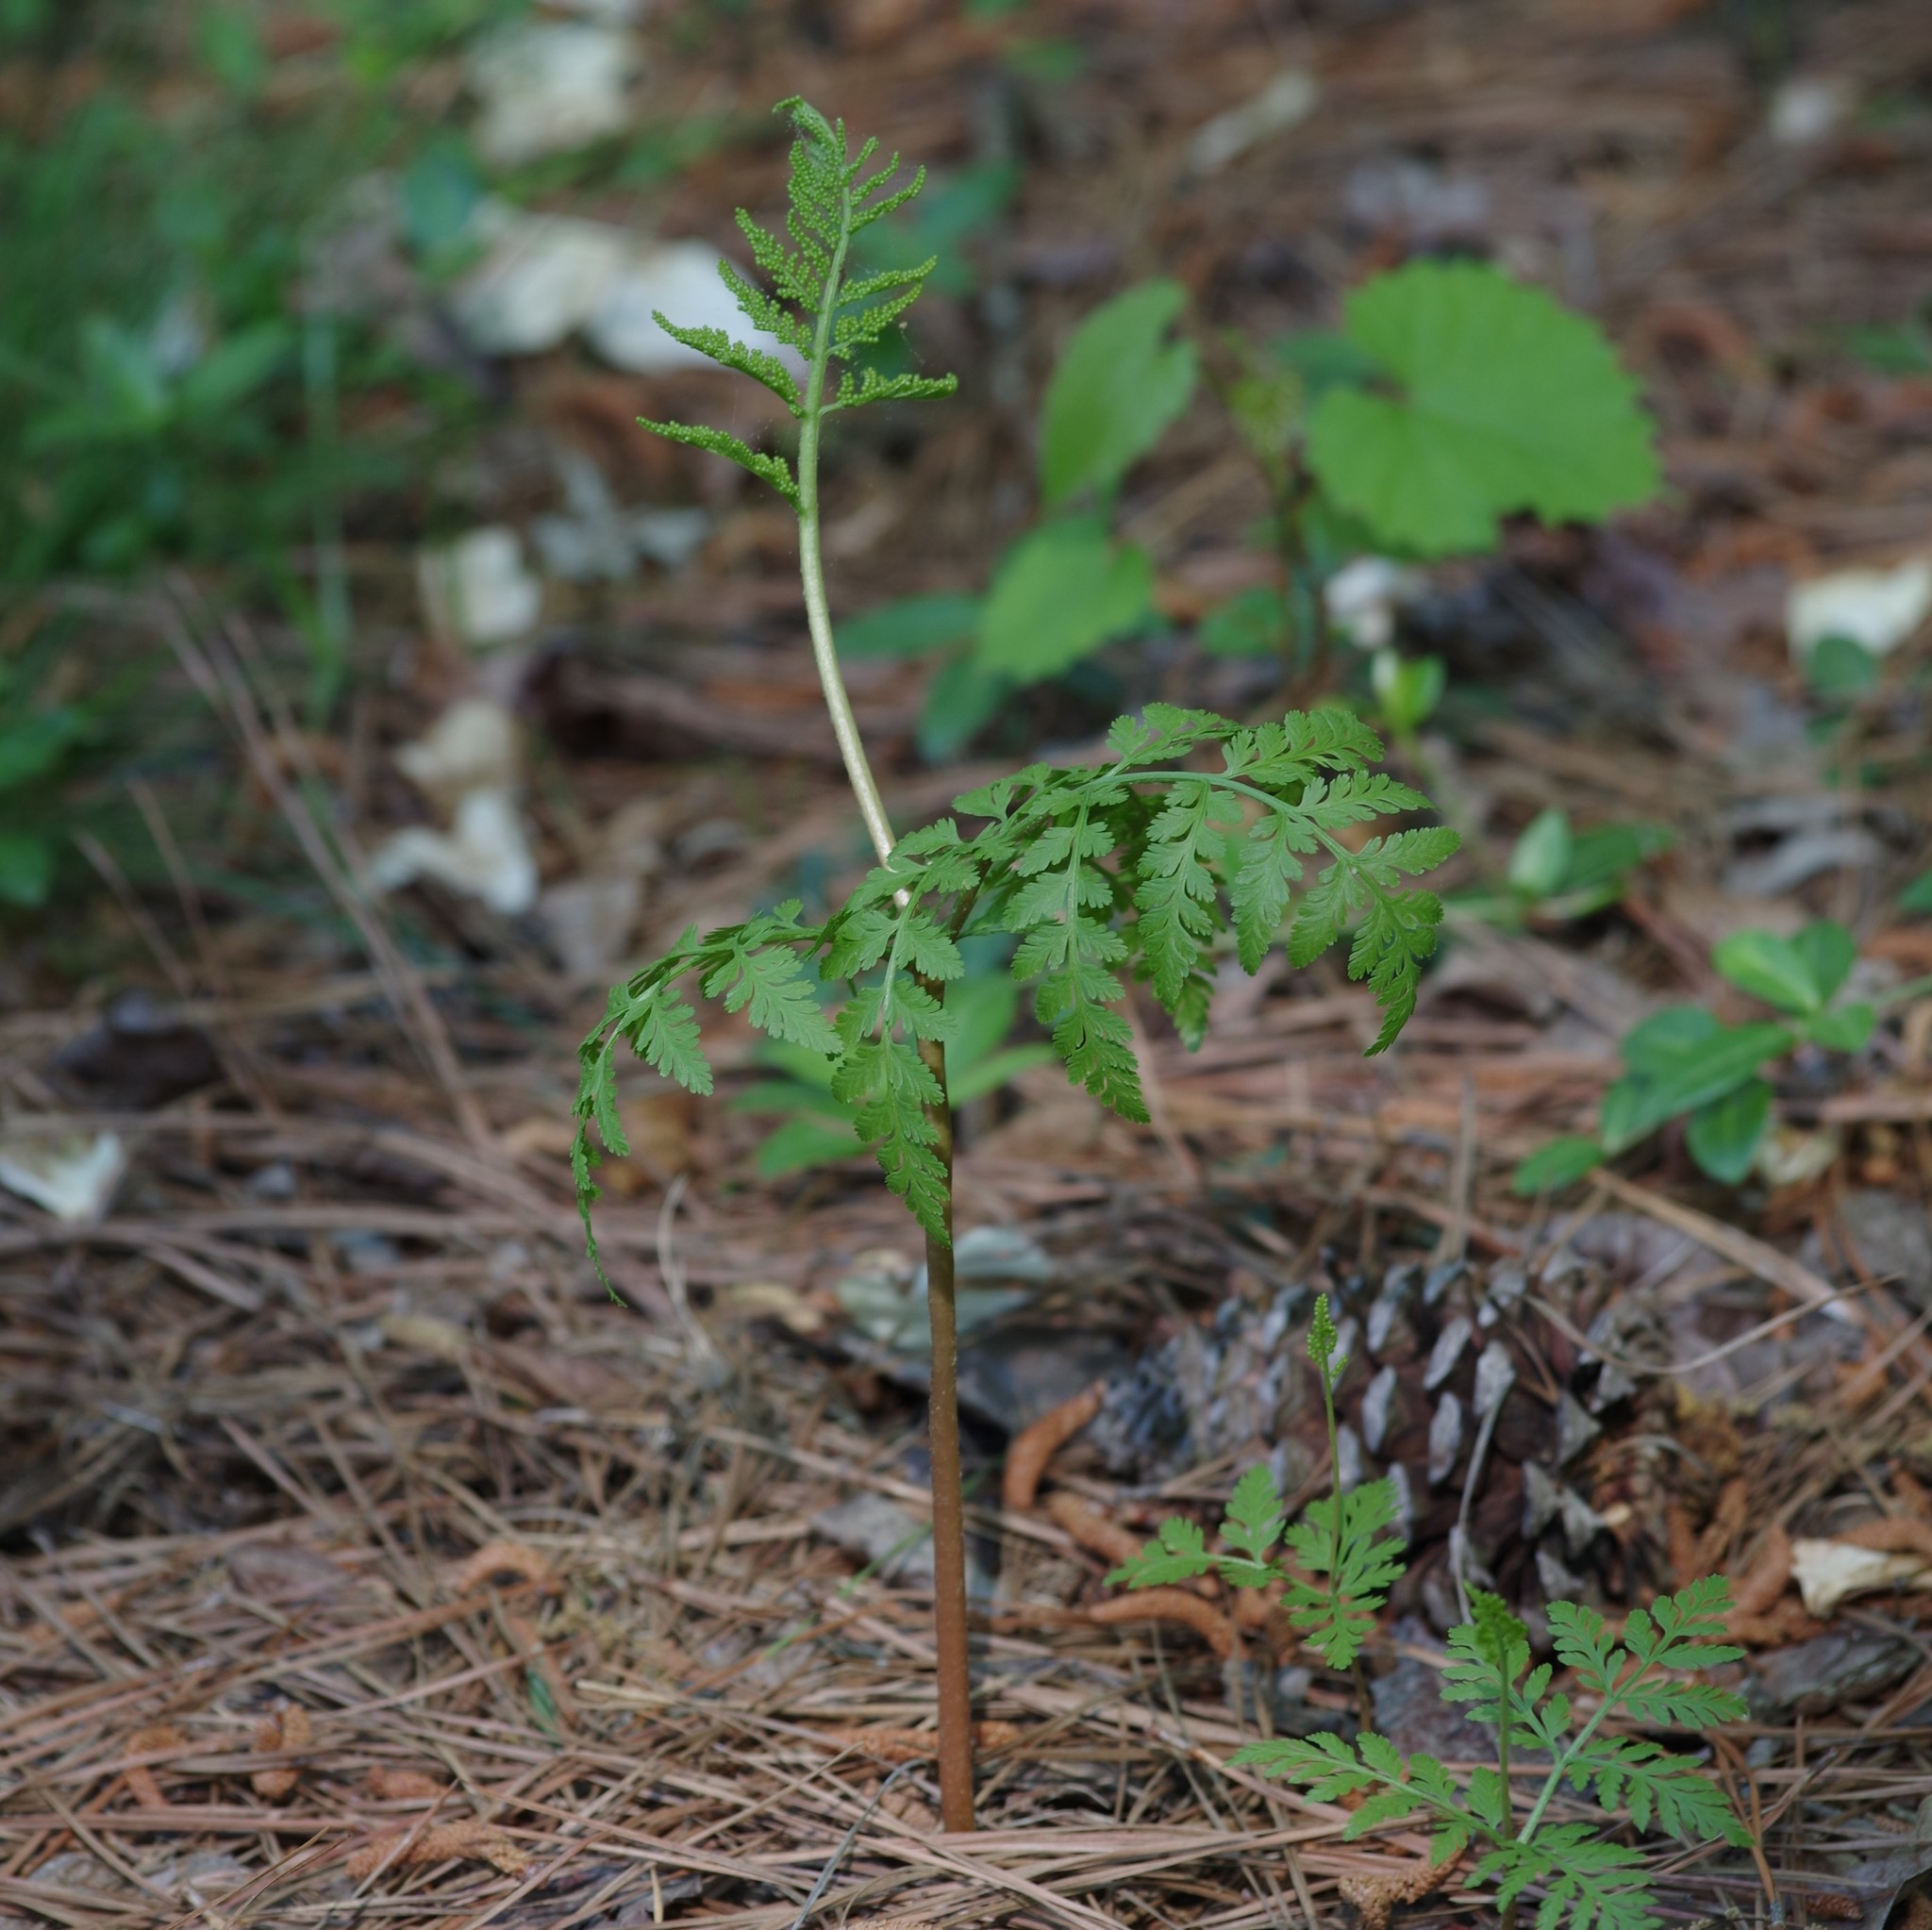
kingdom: Plantae
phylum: Tracheophyta
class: Polypodiopsida
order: Ophioglossales
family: Ophioglossaceae
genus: Botrypus
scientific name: Botrypus virginianus
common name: Common grapefern
